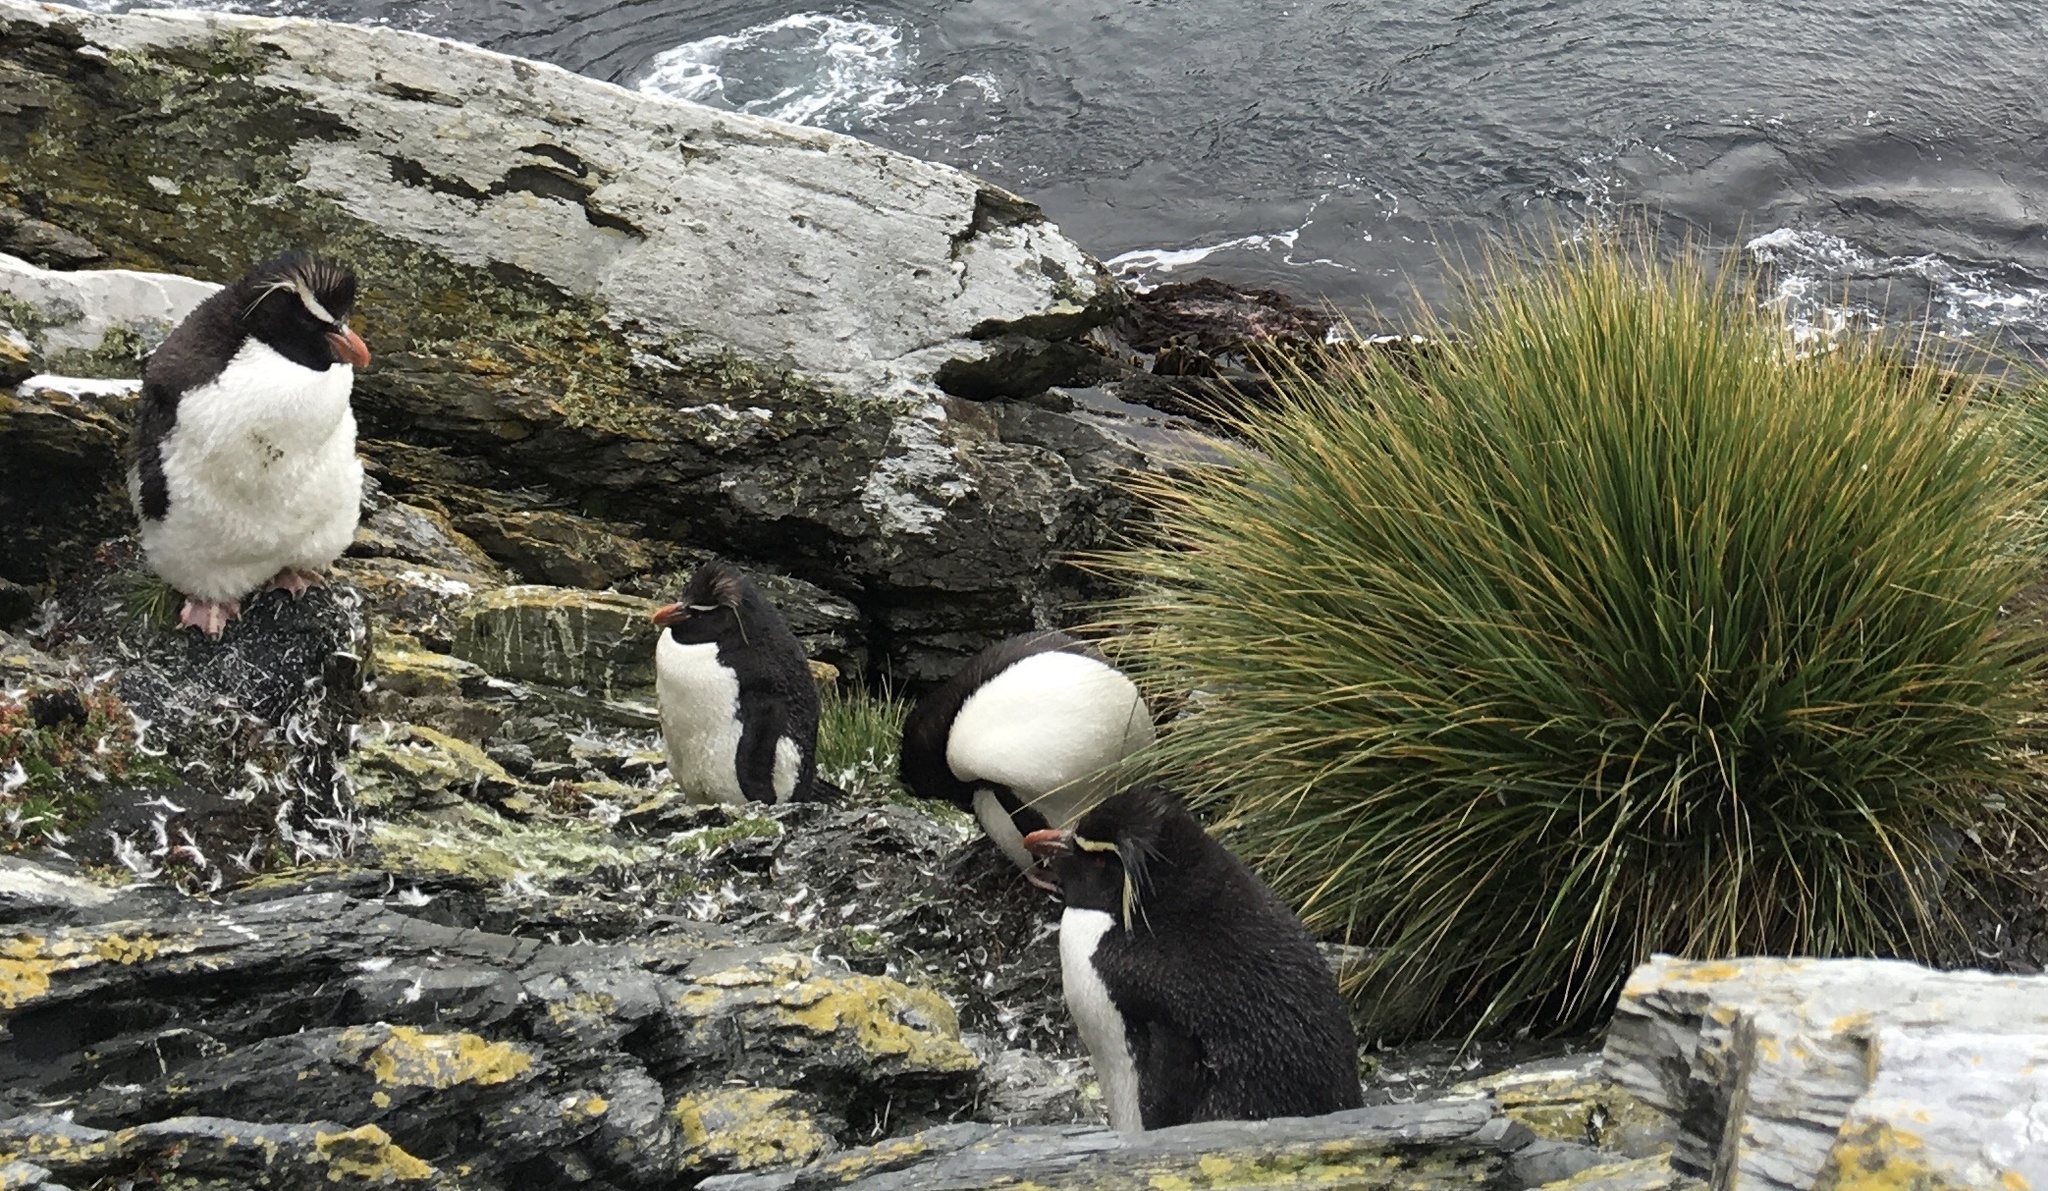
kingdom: Animalia
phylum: Chordata
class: Aves
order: Sphenisciformes
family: Spheniscidae
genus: Eudyptes
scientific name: Eudyptes chrysocome
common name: Southern rockhopper penguin
